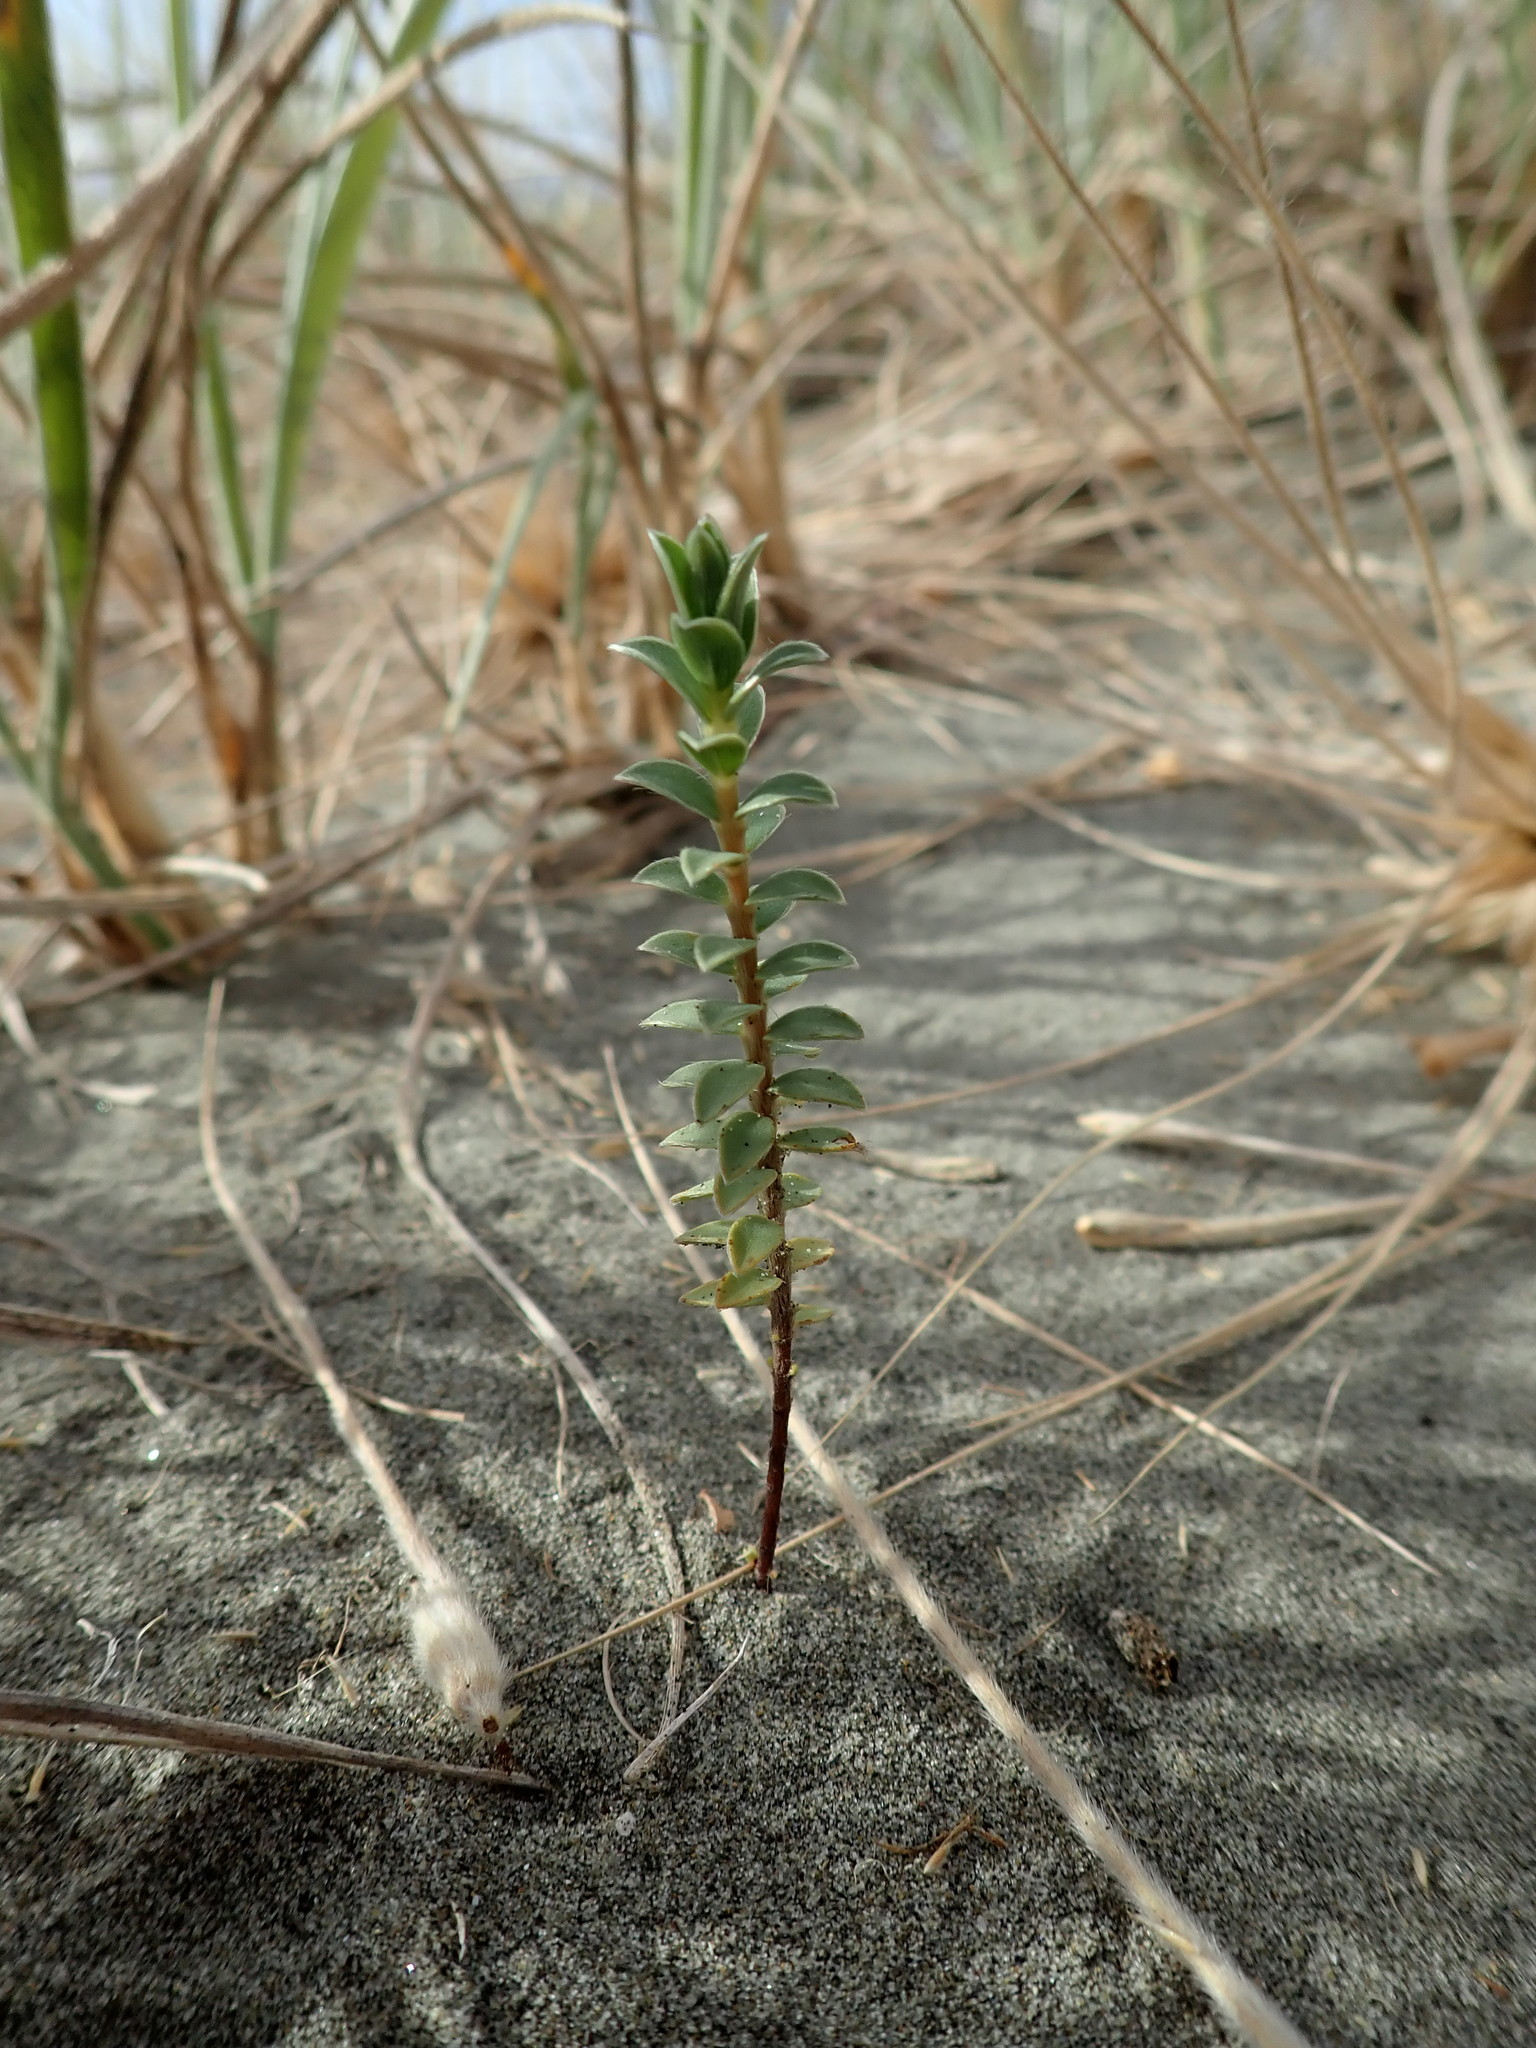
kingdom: Plantae
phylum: Tracheophyta
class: Magnoliopsida
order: Malvales
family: Thymelaeaceae
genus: Pimelea
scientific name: Pimelea villosa
